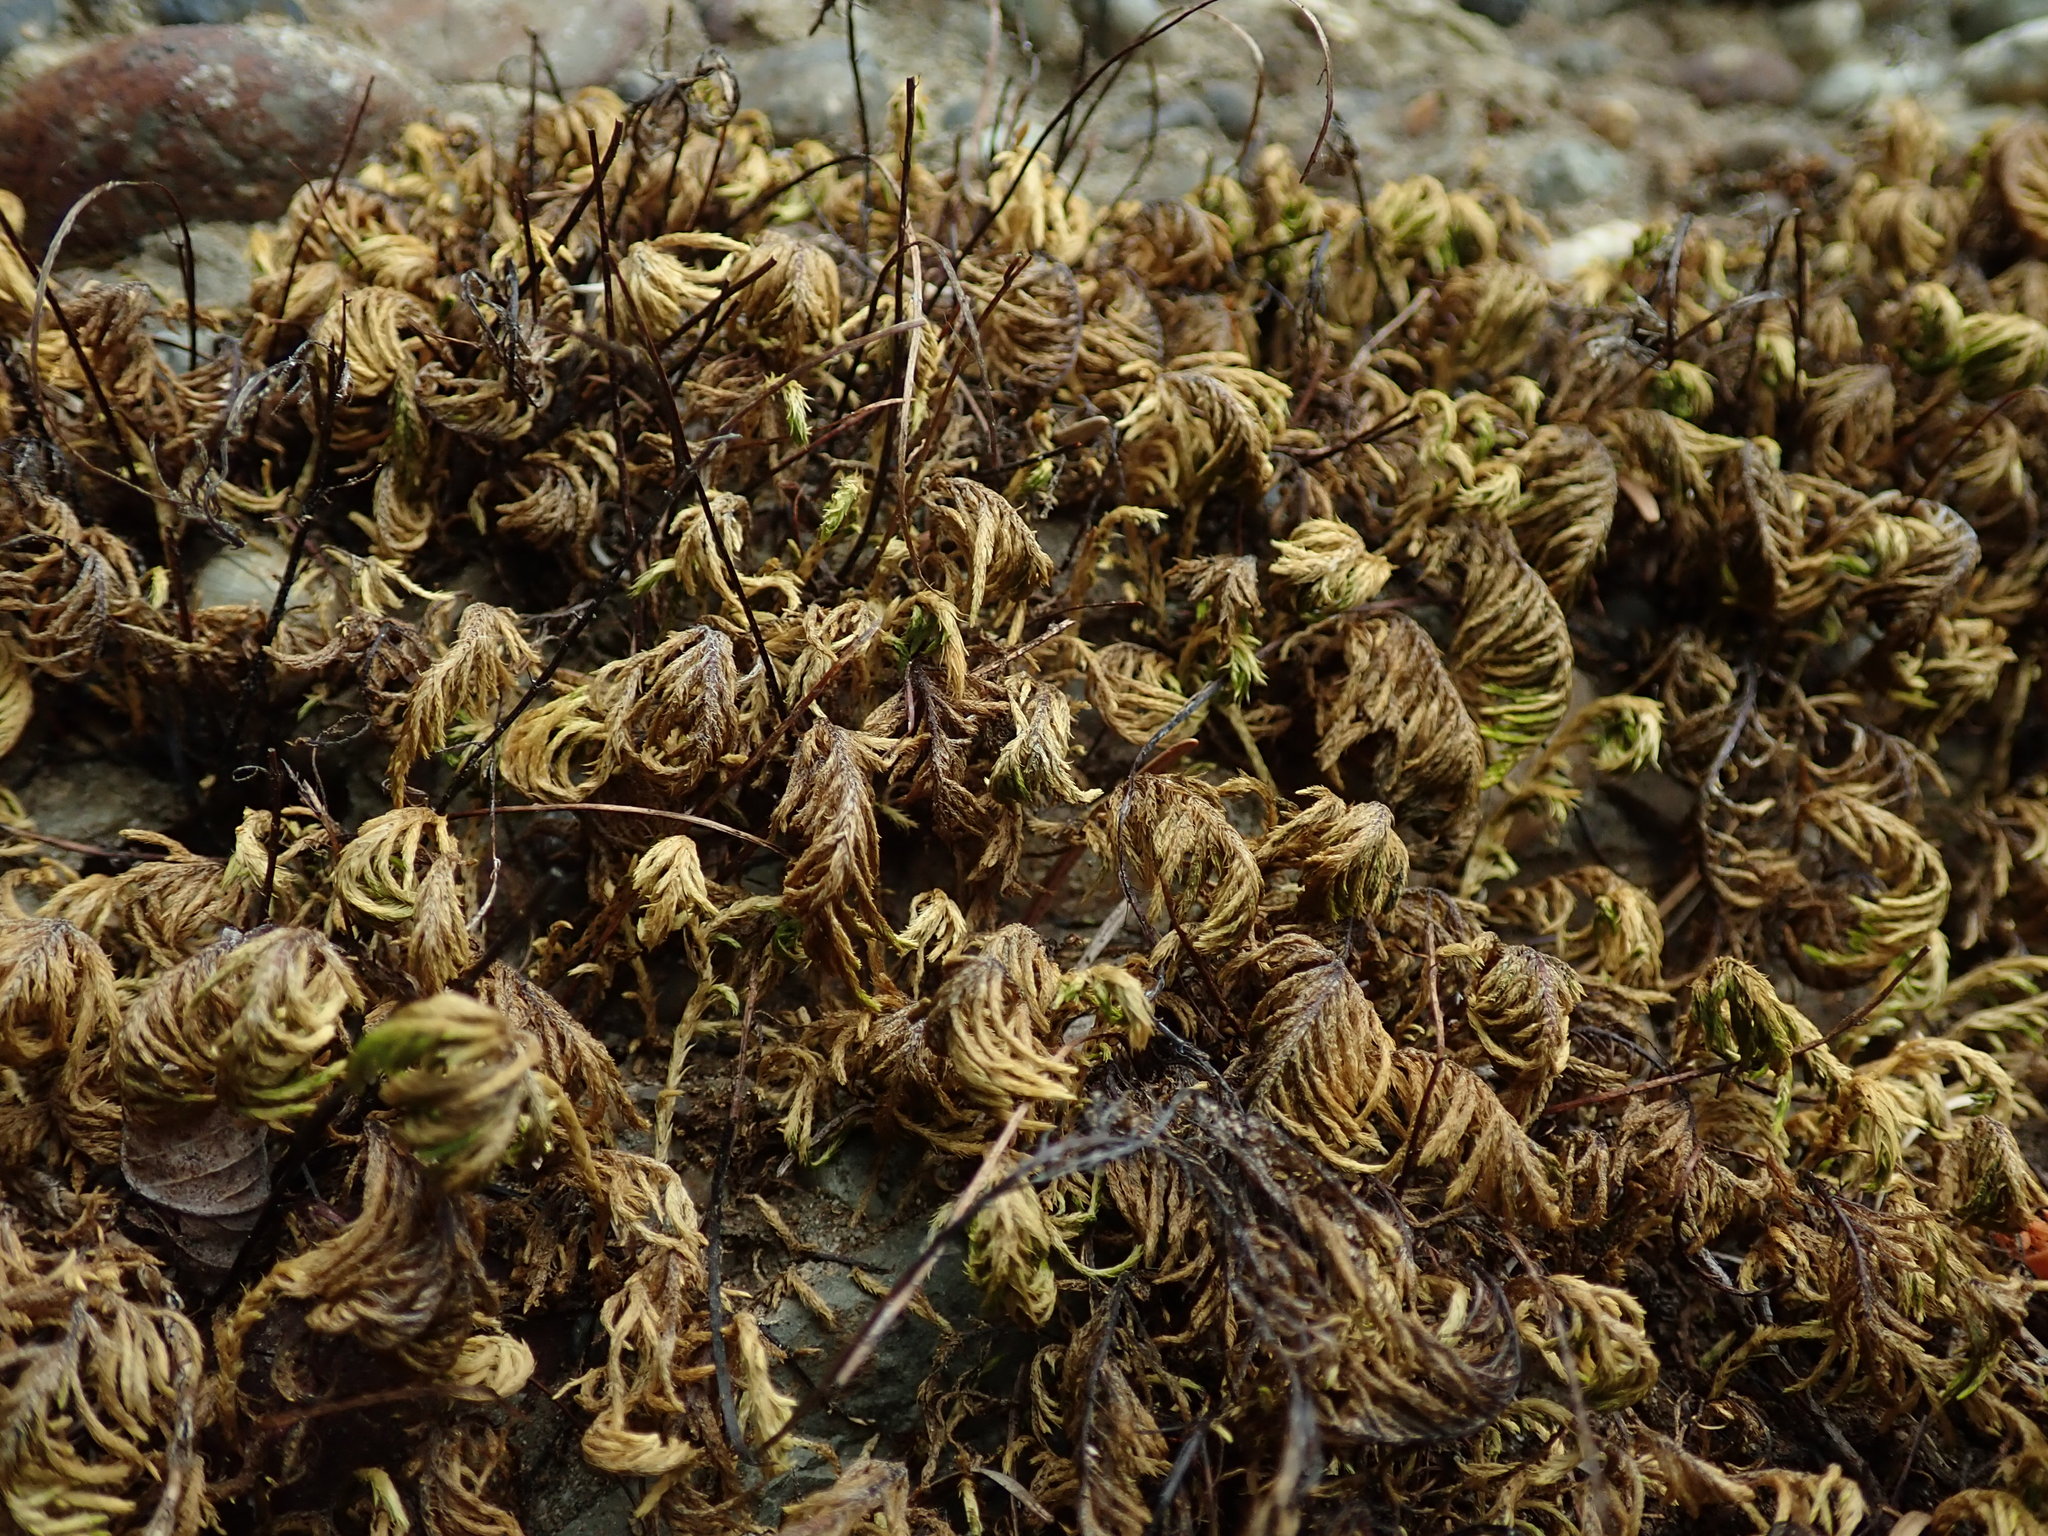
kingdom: Plantae
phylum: Bryophyta
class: Bryopsida
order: Hypnales
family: Cryphaeaceae
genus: Dendroalsia
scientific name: Dendroalsia abietina
